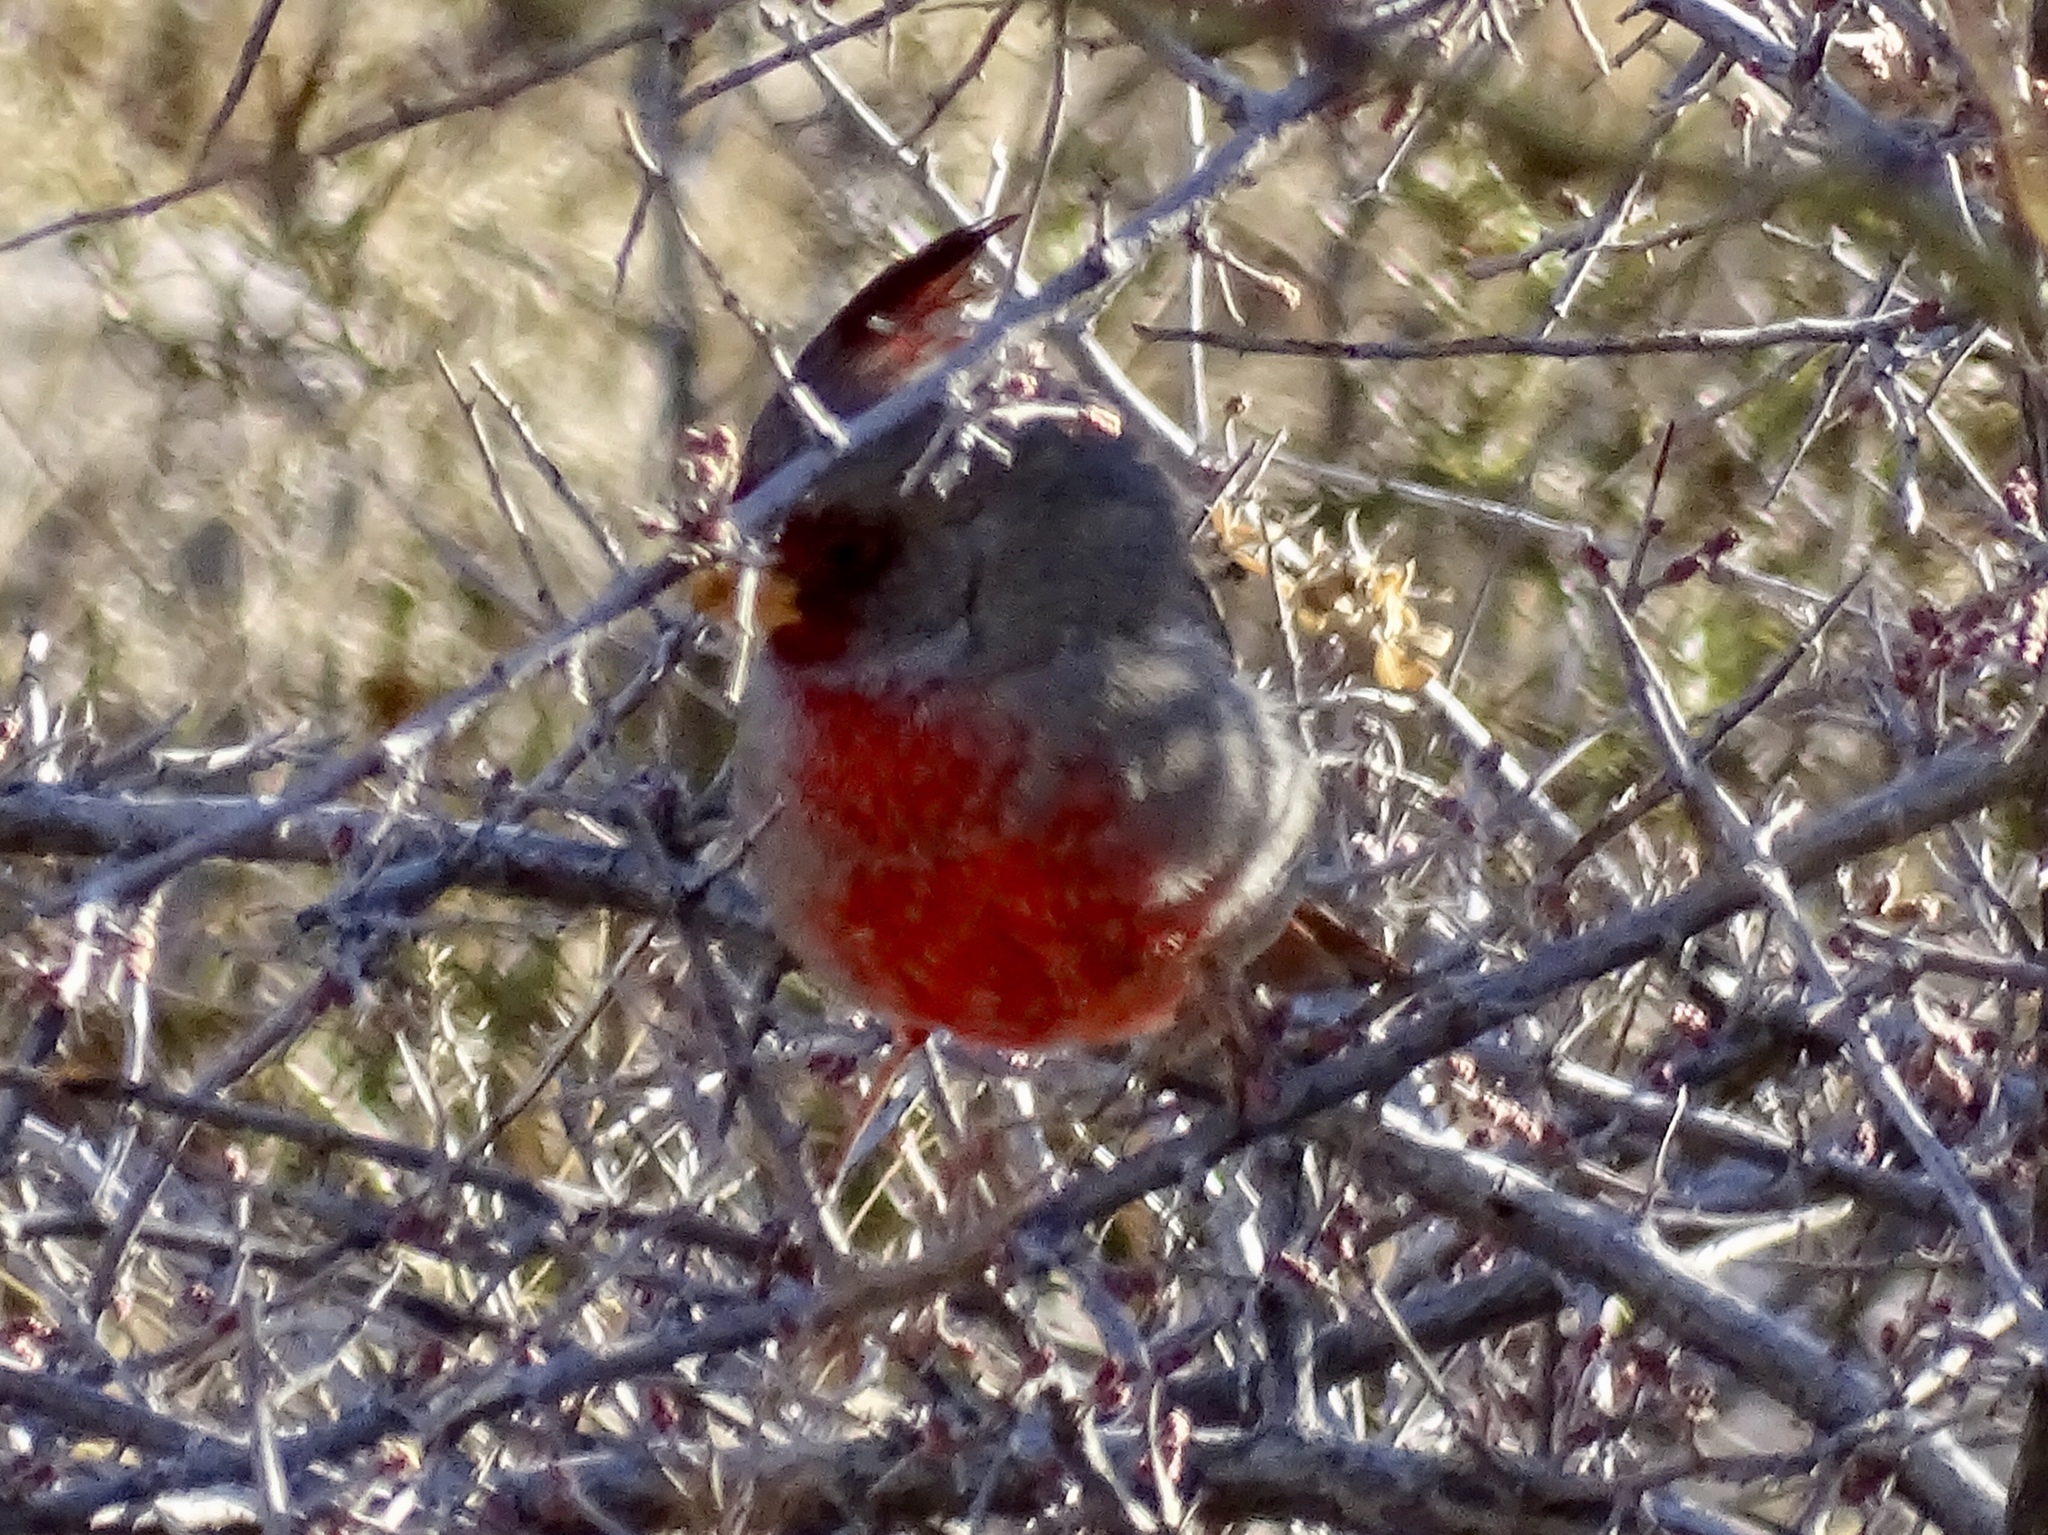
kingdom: Animalia
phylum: Chordata
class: Aves
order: Passeriformes
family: Cardinalidae
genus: Cardinalis
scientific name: Cardinalis sinuatus
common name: Pyrrhuloxia
